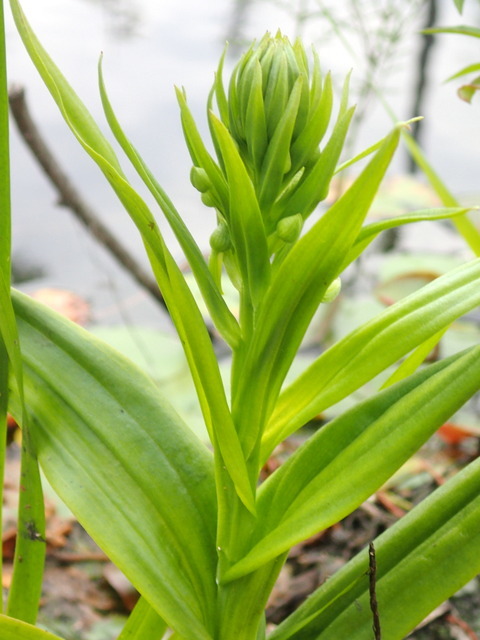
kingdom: Plantae
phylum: Tracheophyta
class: Liliopsida
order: Asparagales
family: Orchidaceae
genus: Habenaria
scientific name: Habenaria repens
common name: Water orchid
